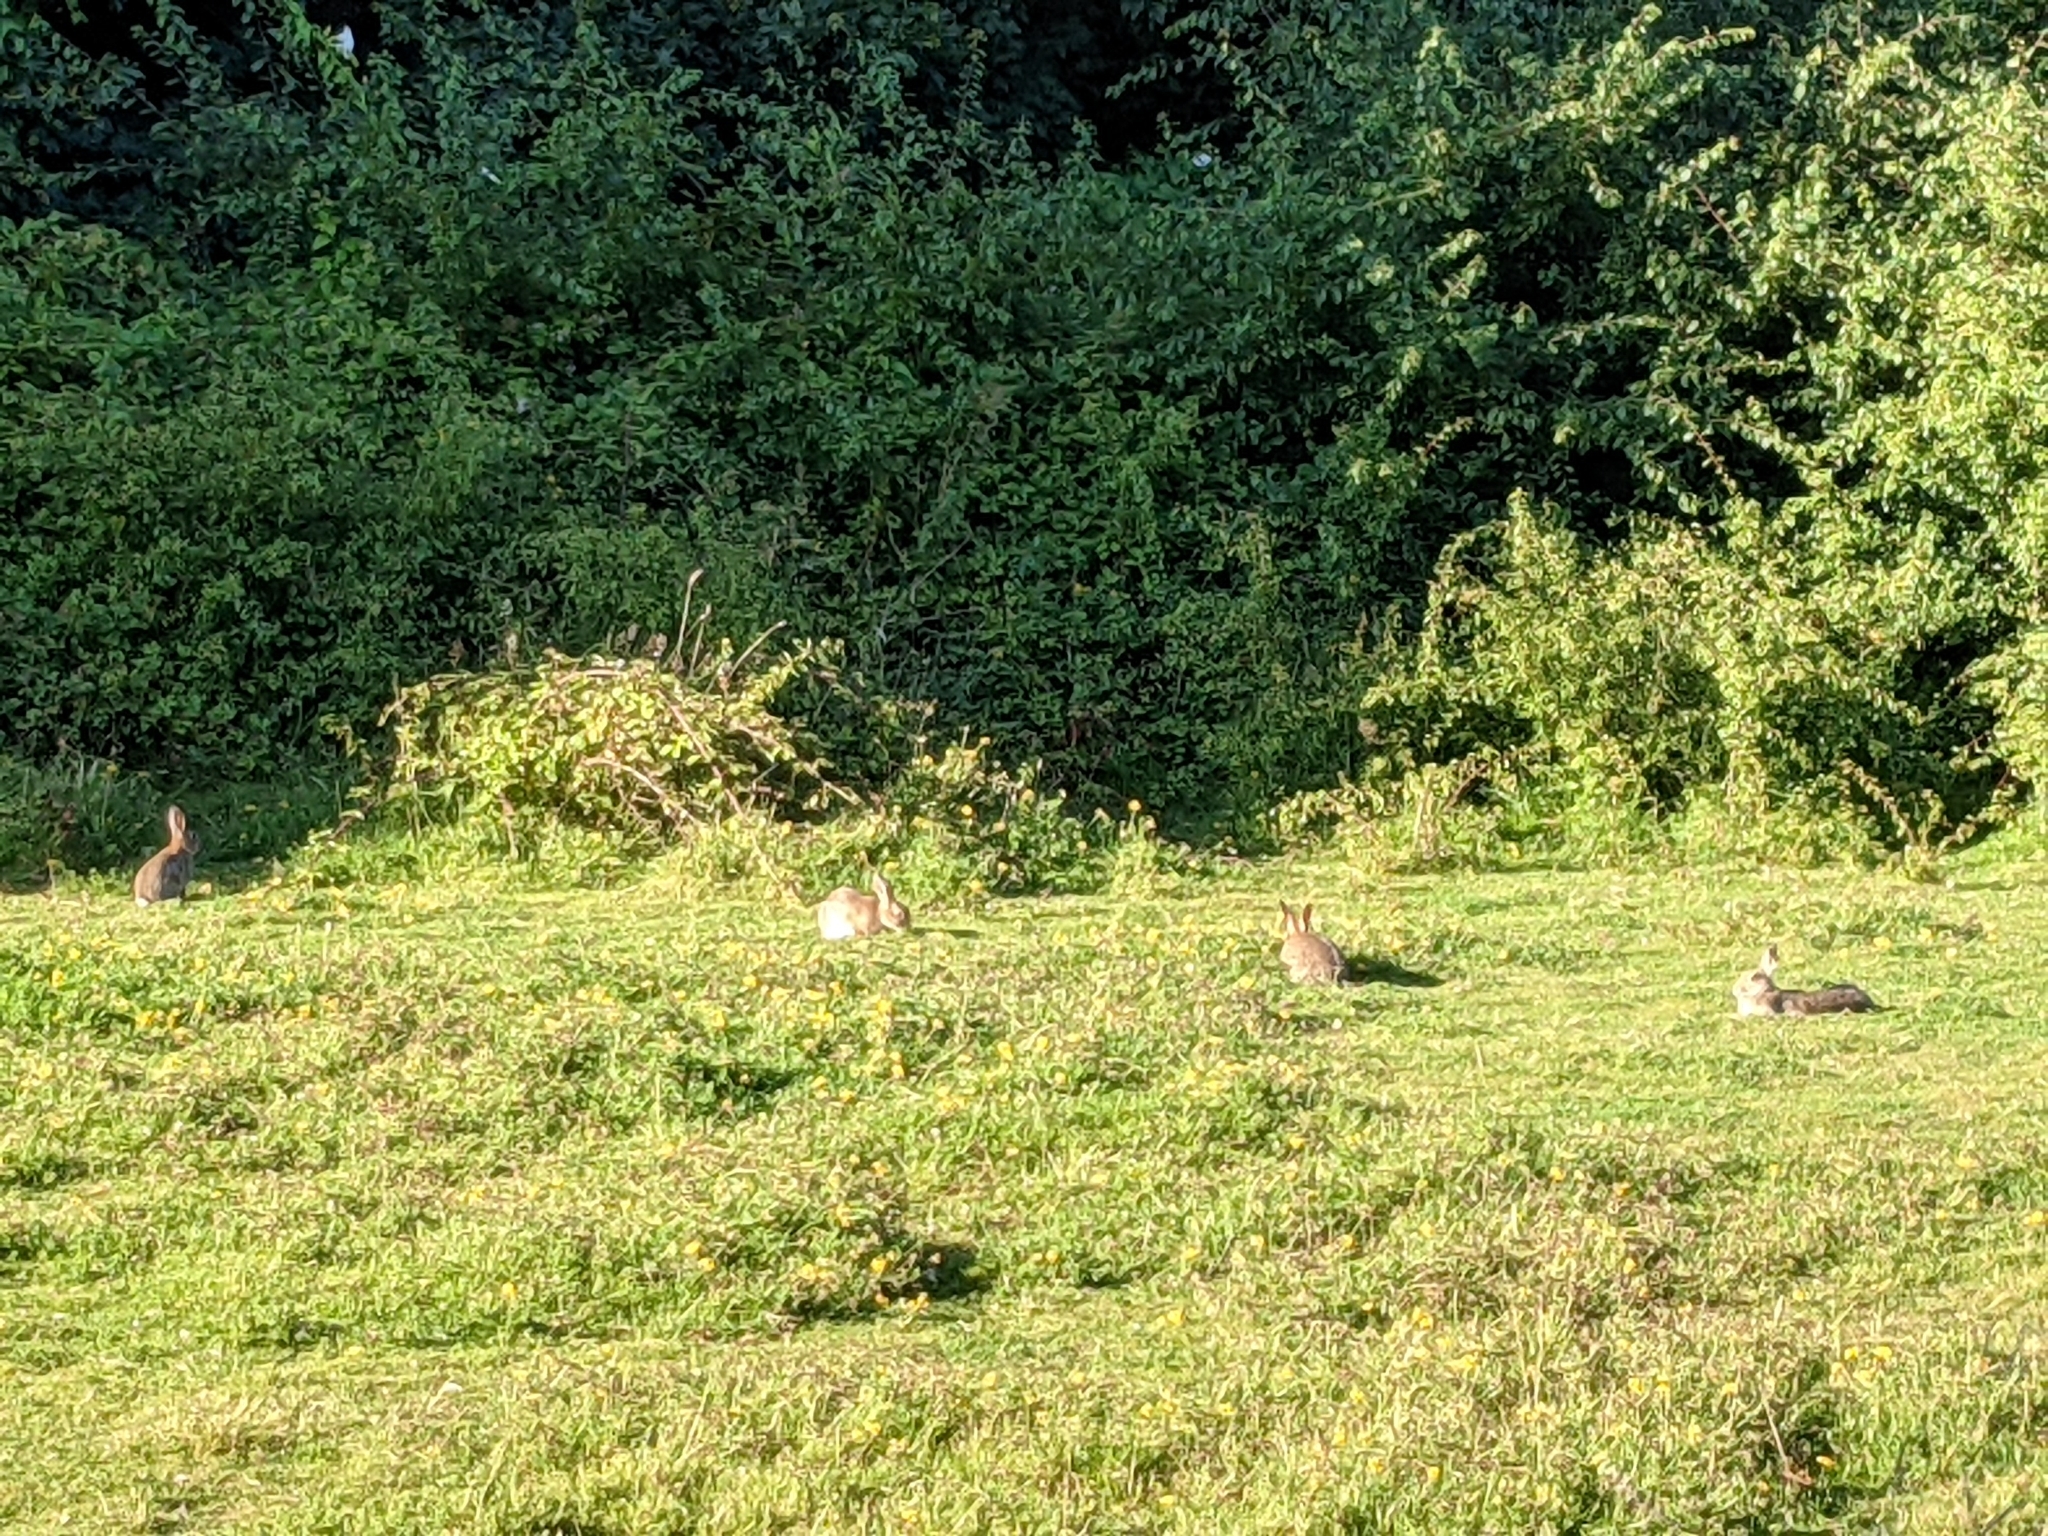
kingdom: Animalia
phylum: Chordata
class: Mammalia
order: Lagomorpha
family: Leporidae
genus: Oryctolagus
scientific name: Oryctolagus cuniculus
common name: European rabbit
